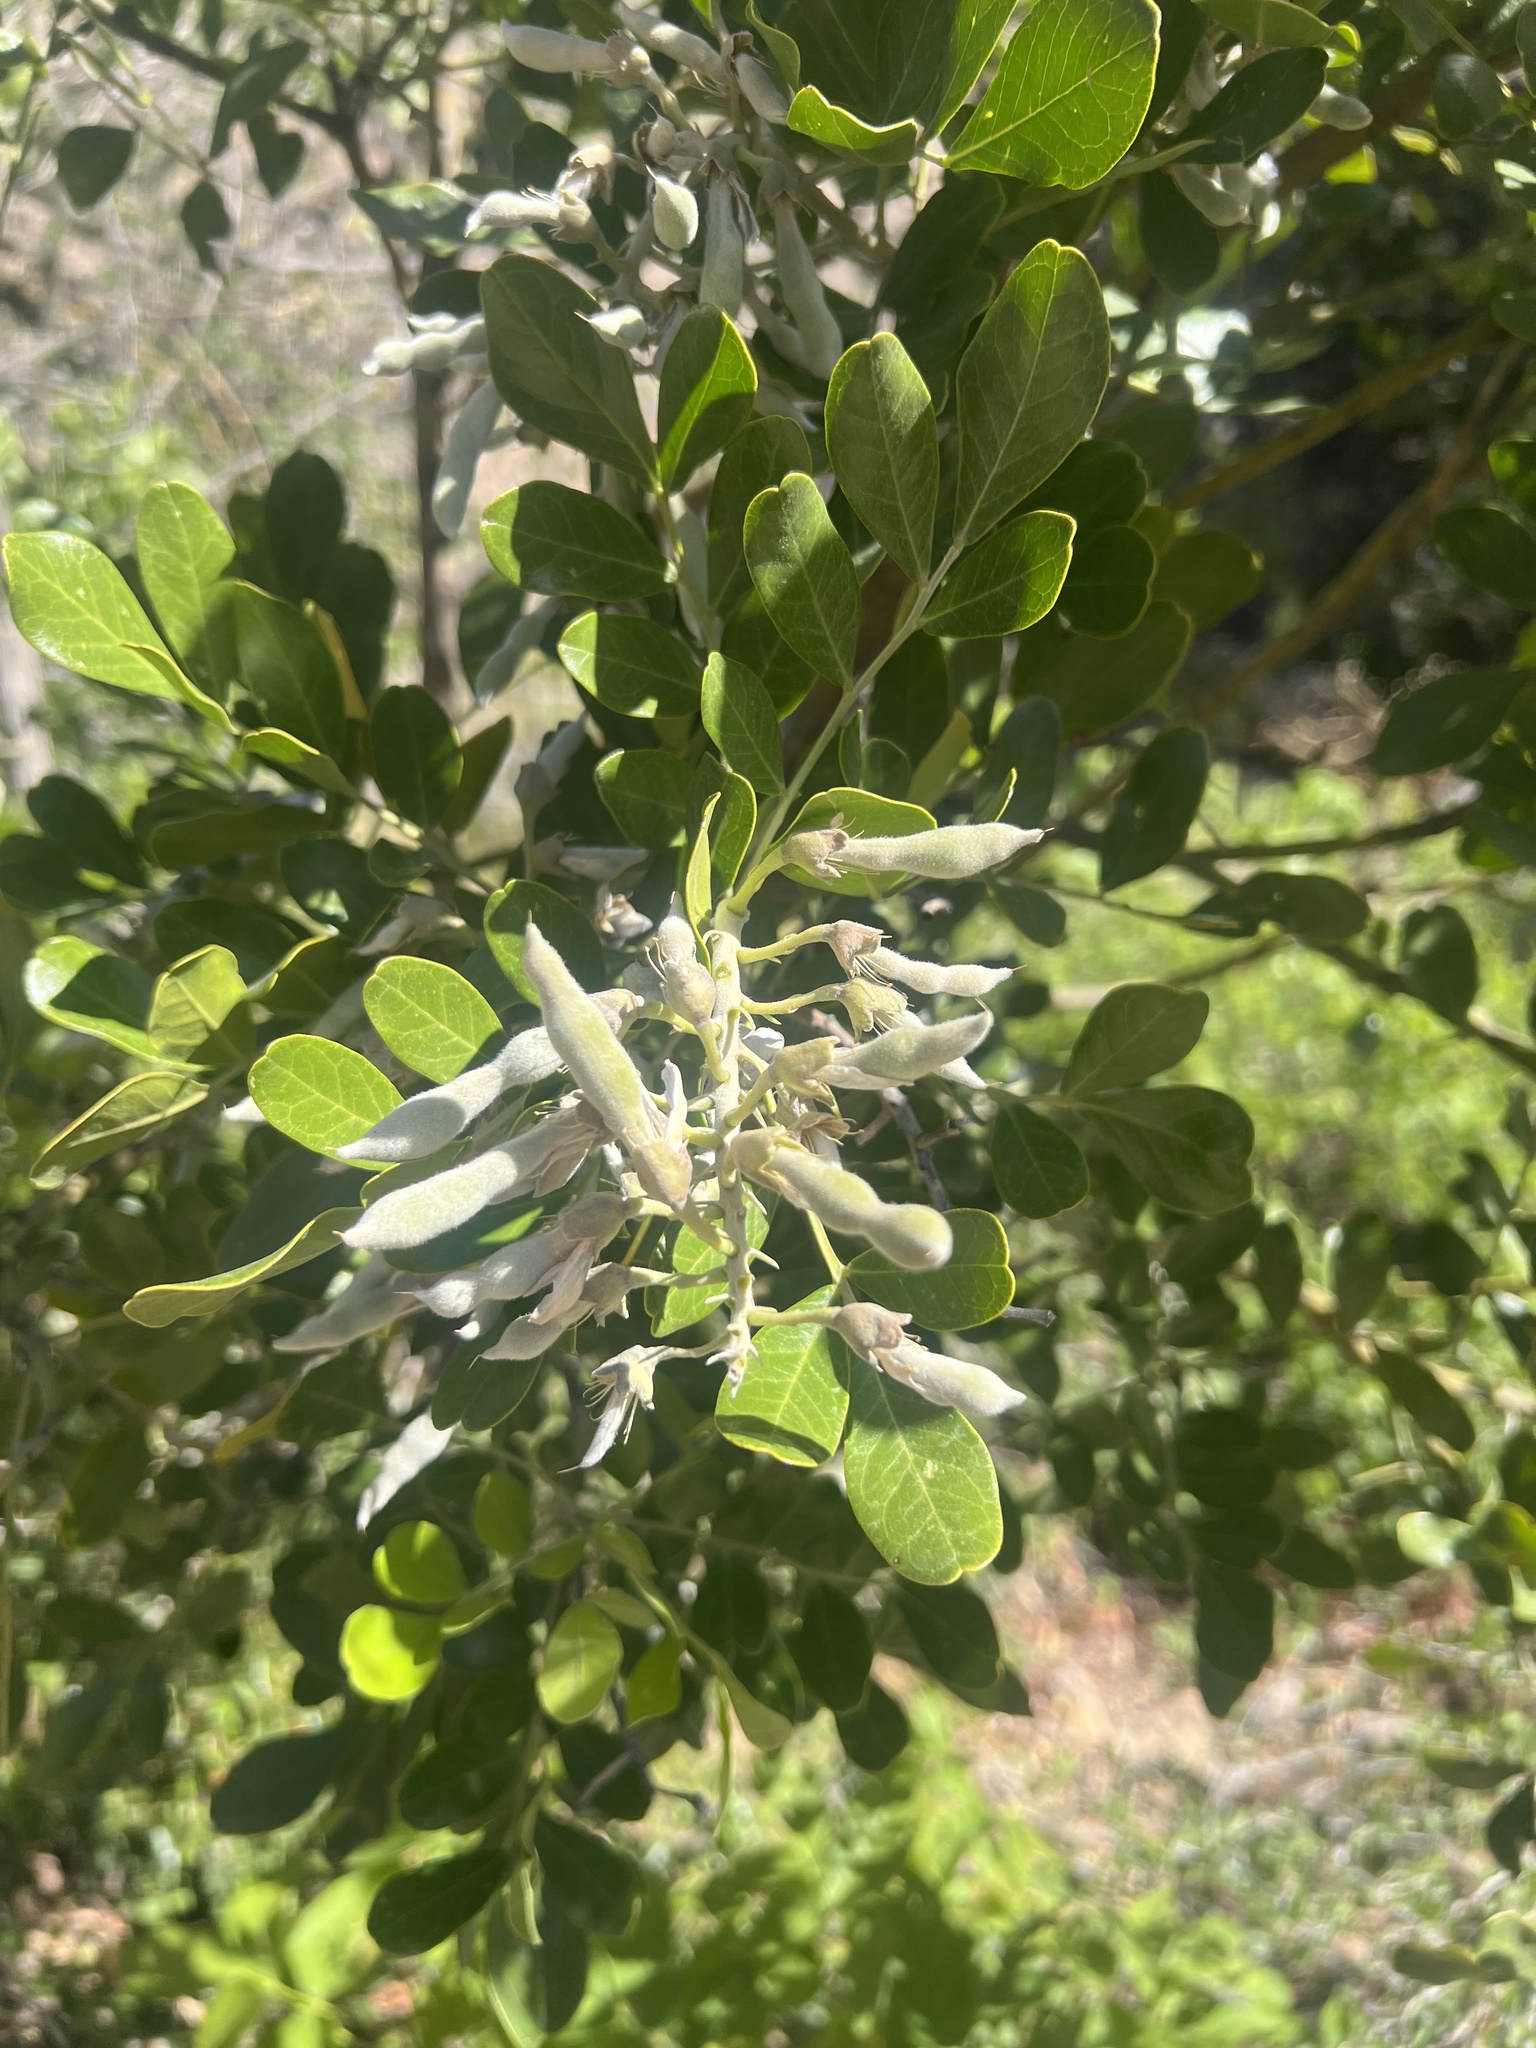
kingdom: Plantae
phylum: Tracheophyta
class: Magnoliopsida
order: Fabales
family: Fabaceae
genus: Dermatophyllum
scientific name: Dermatophyllum secundiflorum
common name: Texas-mountain-laurel
